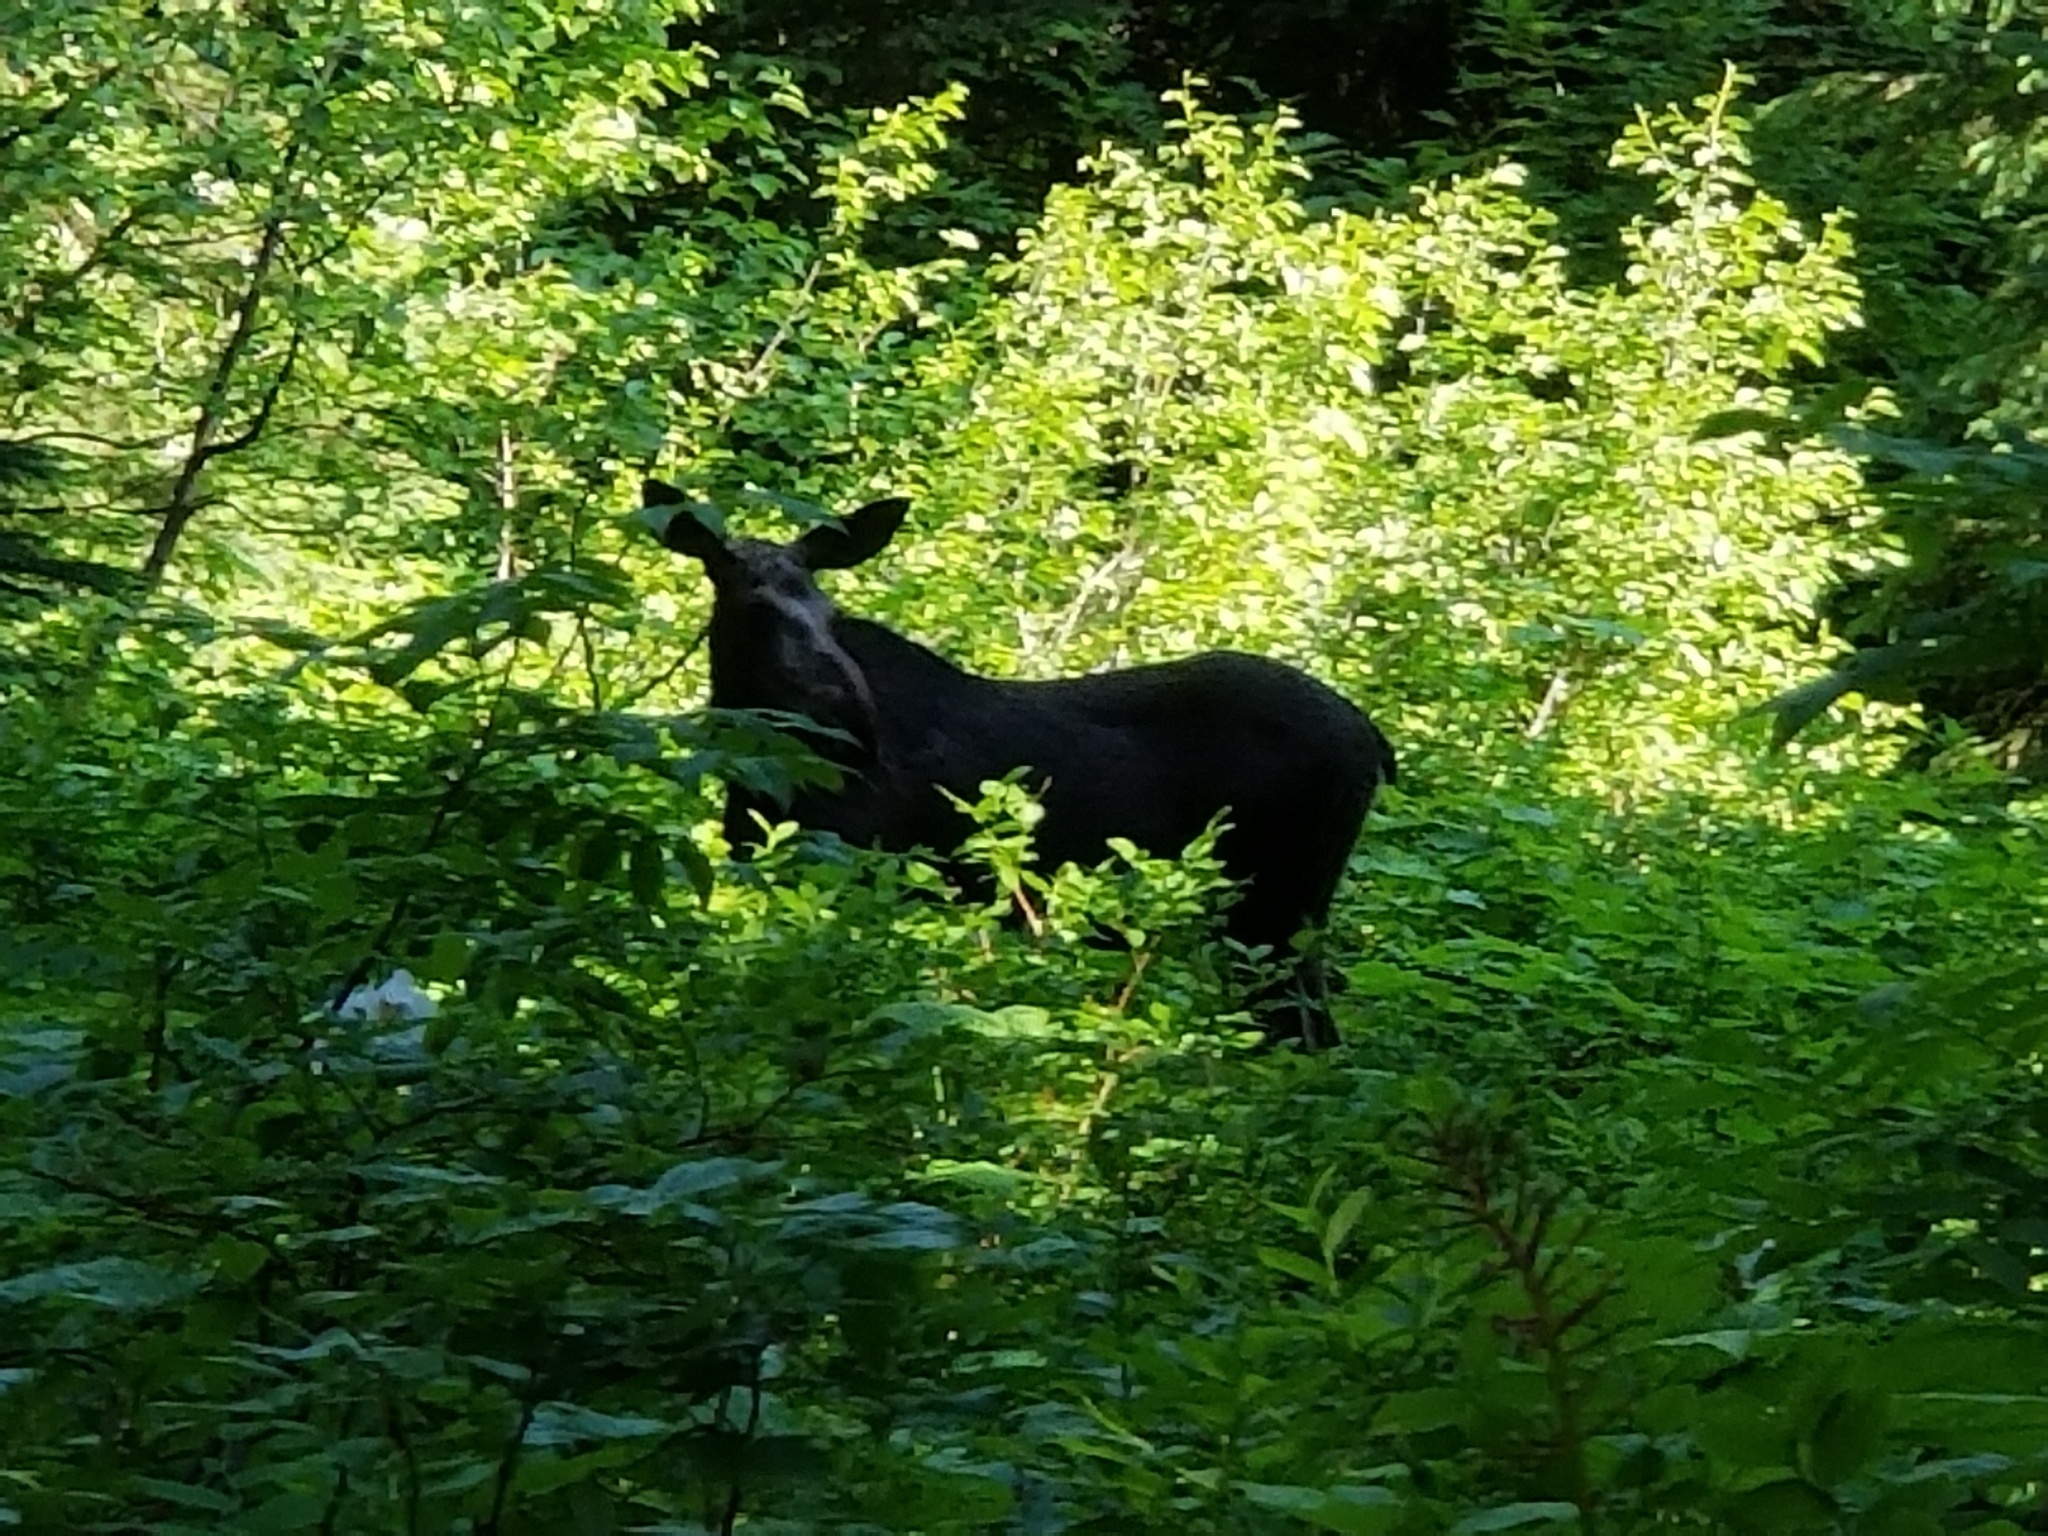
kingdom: Animalia
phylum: Chordata
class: Mammalia
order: Artiodactyla
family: Cervidae
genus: Alces
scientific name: Alces alces
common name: Moose
